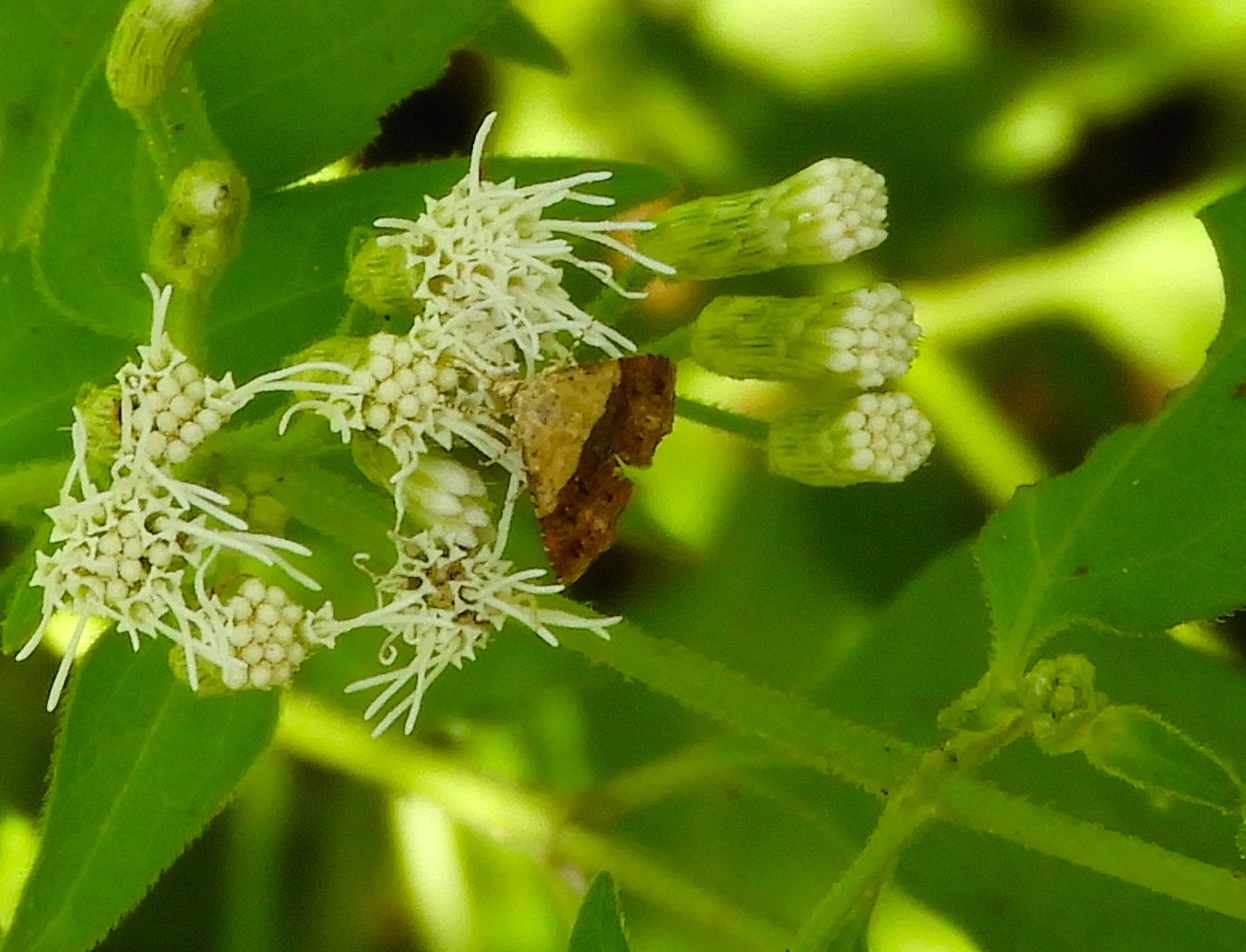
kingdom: Animalia
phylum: Arthropoda
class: Insecta
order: Lepidoptera
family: Noctuidae
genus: Tripudia
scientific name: Tripudia
